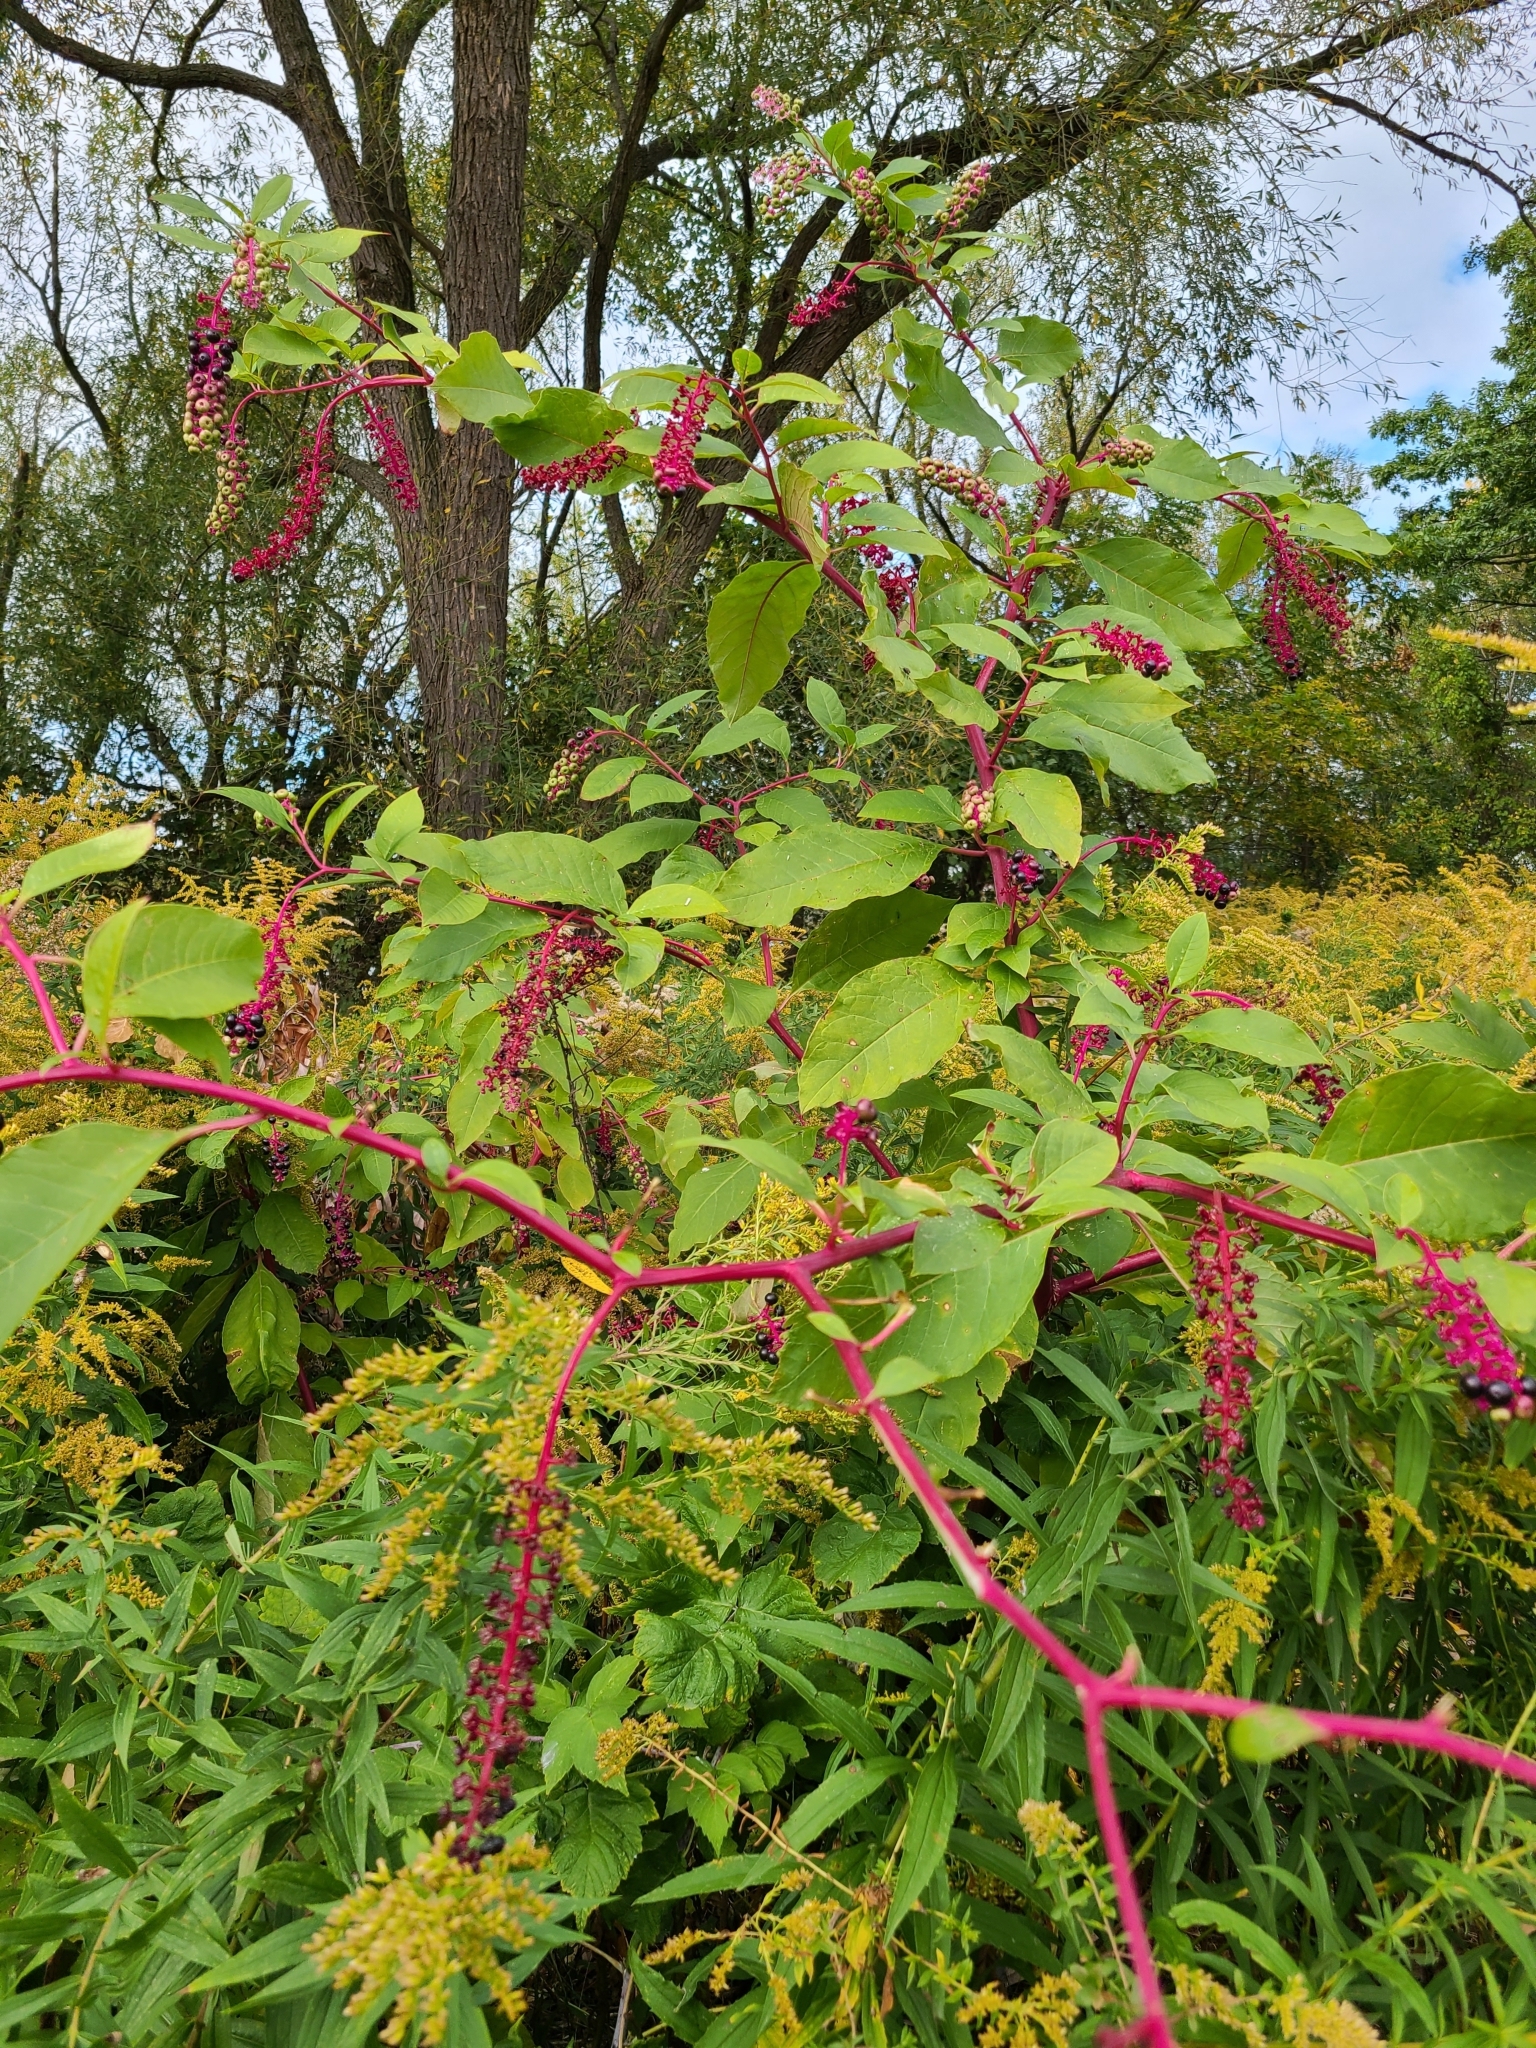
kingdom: Plantae
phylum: Tracheophyta
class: Magnoliopsida
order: Caryophyllales
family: Phytolaccaceae
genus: Phytolacca
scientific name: Phytolacca americana
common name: American pokeweed
